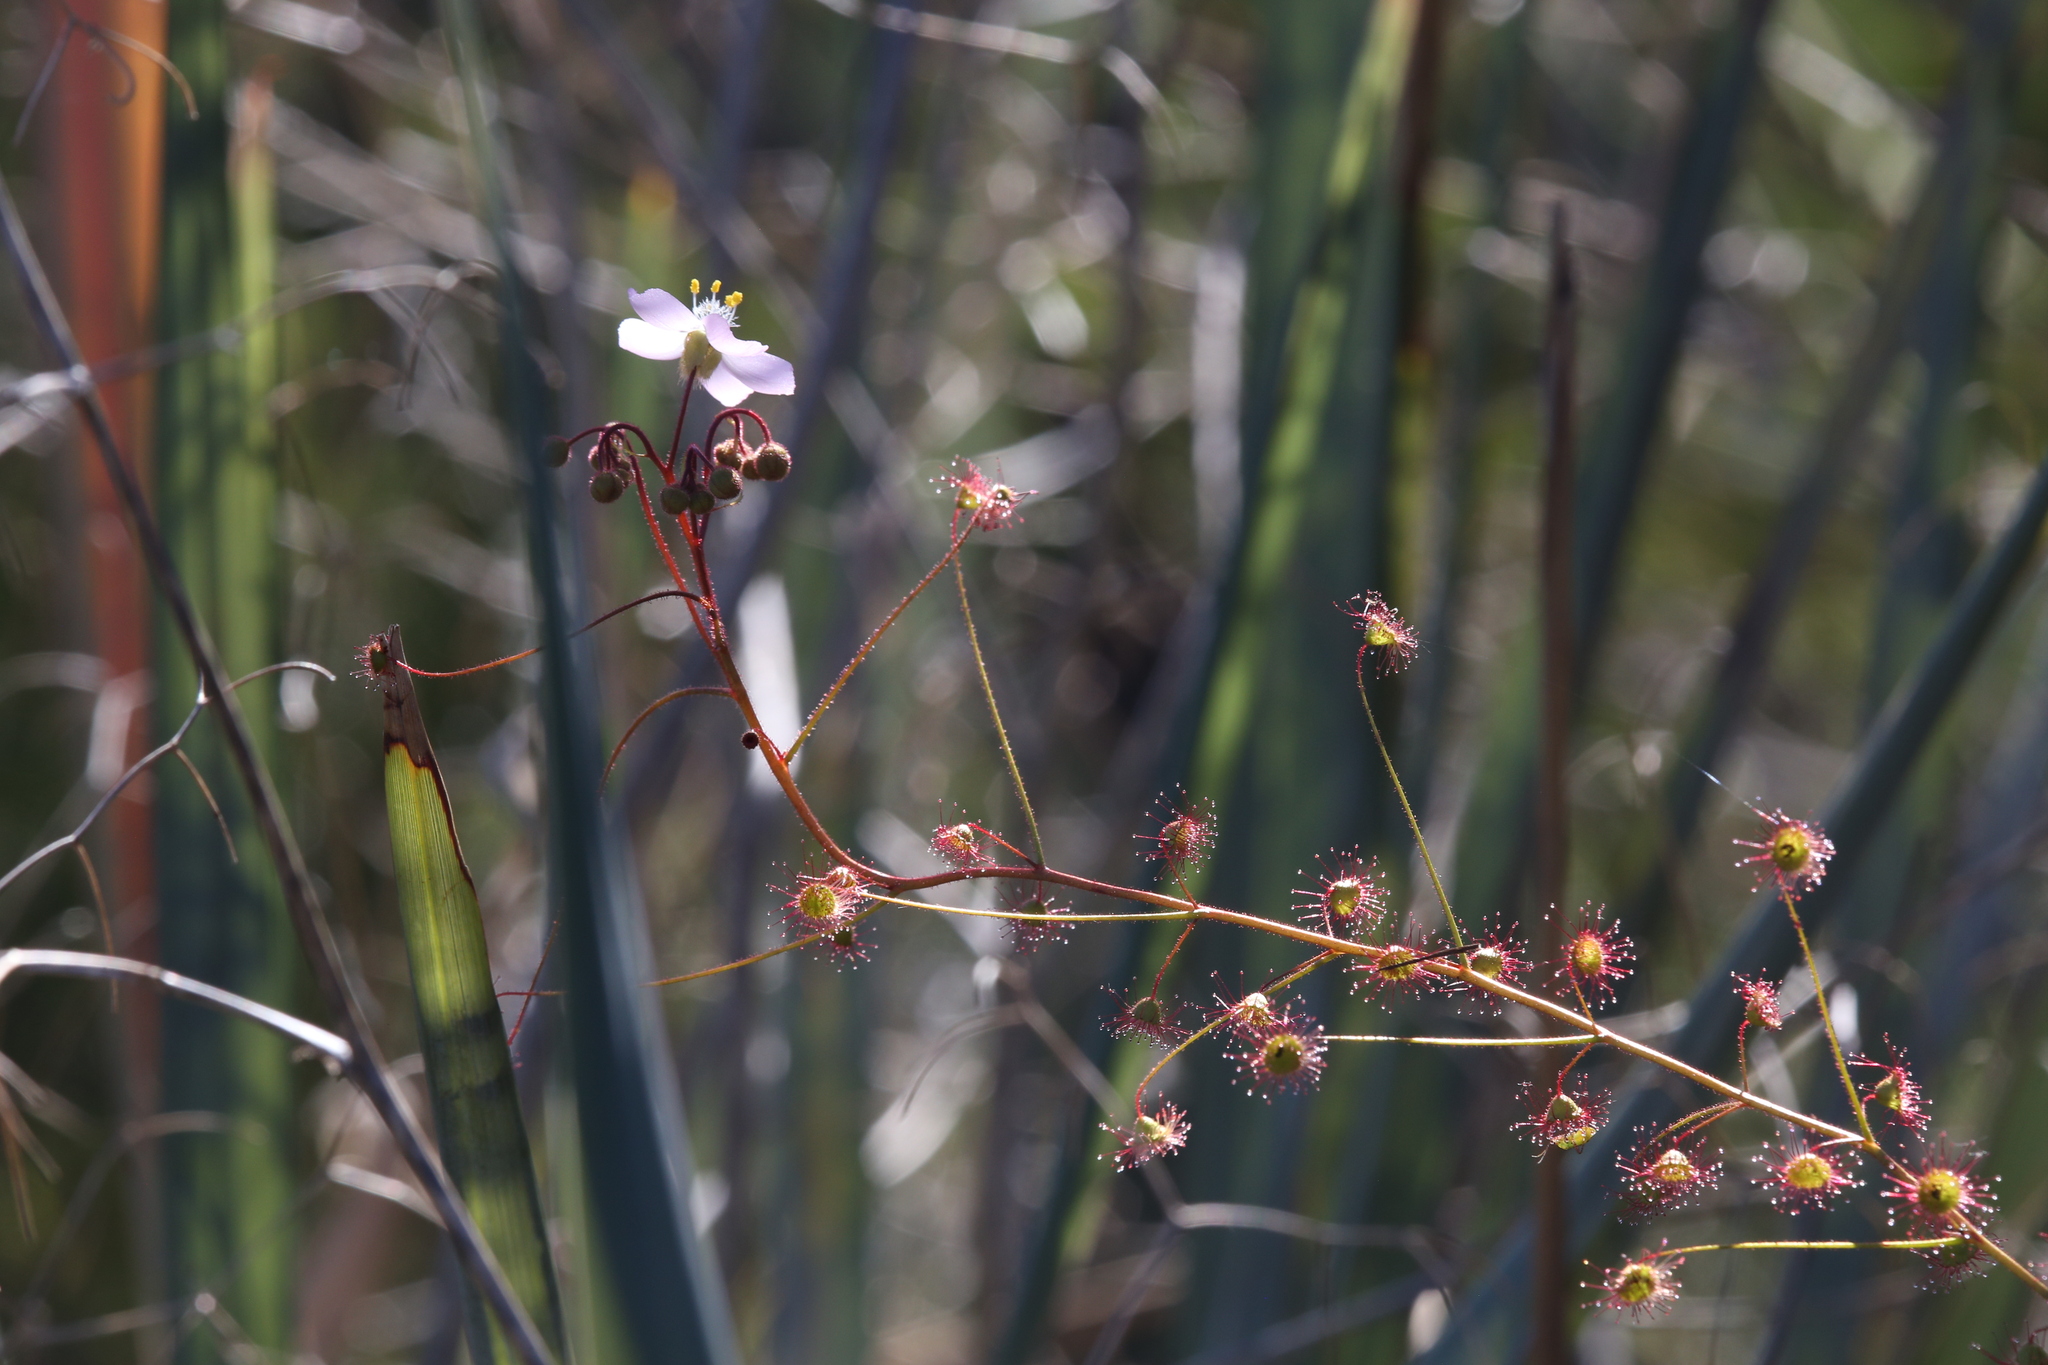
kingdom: Plantae
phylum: Tracheophyta
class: Magnoliopsida
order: Caryophyllales
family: Droseraceae
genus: Drosera
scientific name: Drosera stricticaulis
